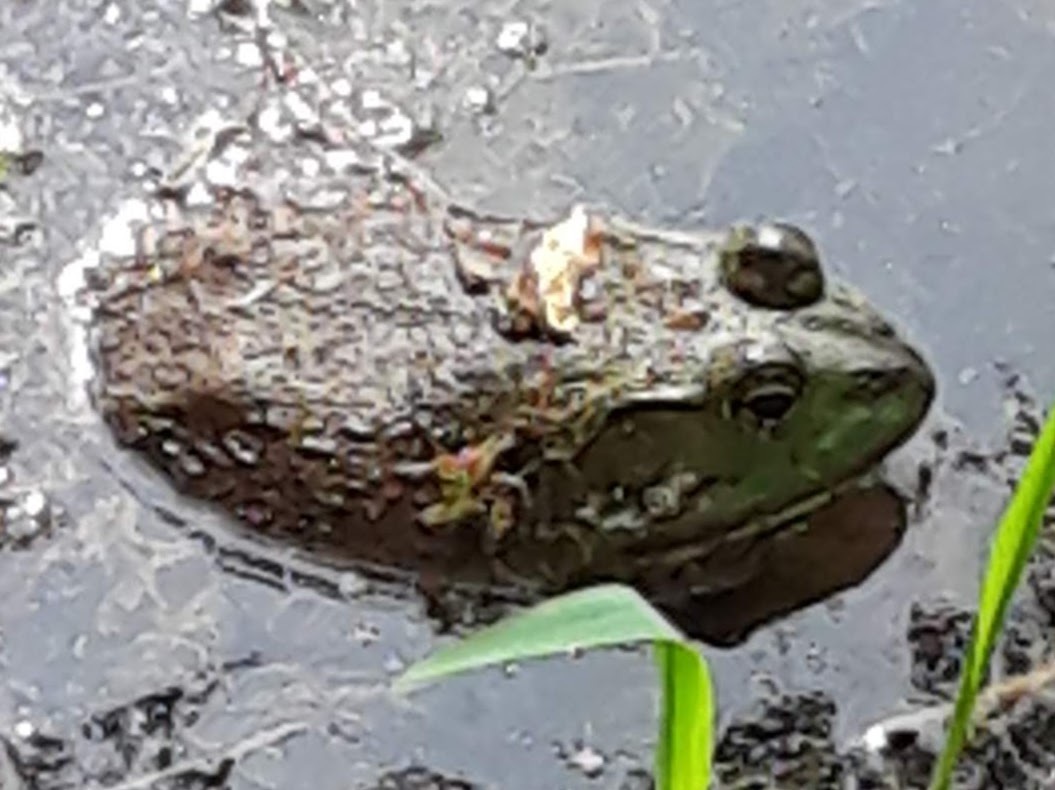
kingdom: Animalia
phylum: Chordata
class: Amphibia
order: Anura
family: Ranidae
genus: Lithobates
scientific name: Lithobates catesbeianus
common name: American bullfrog
